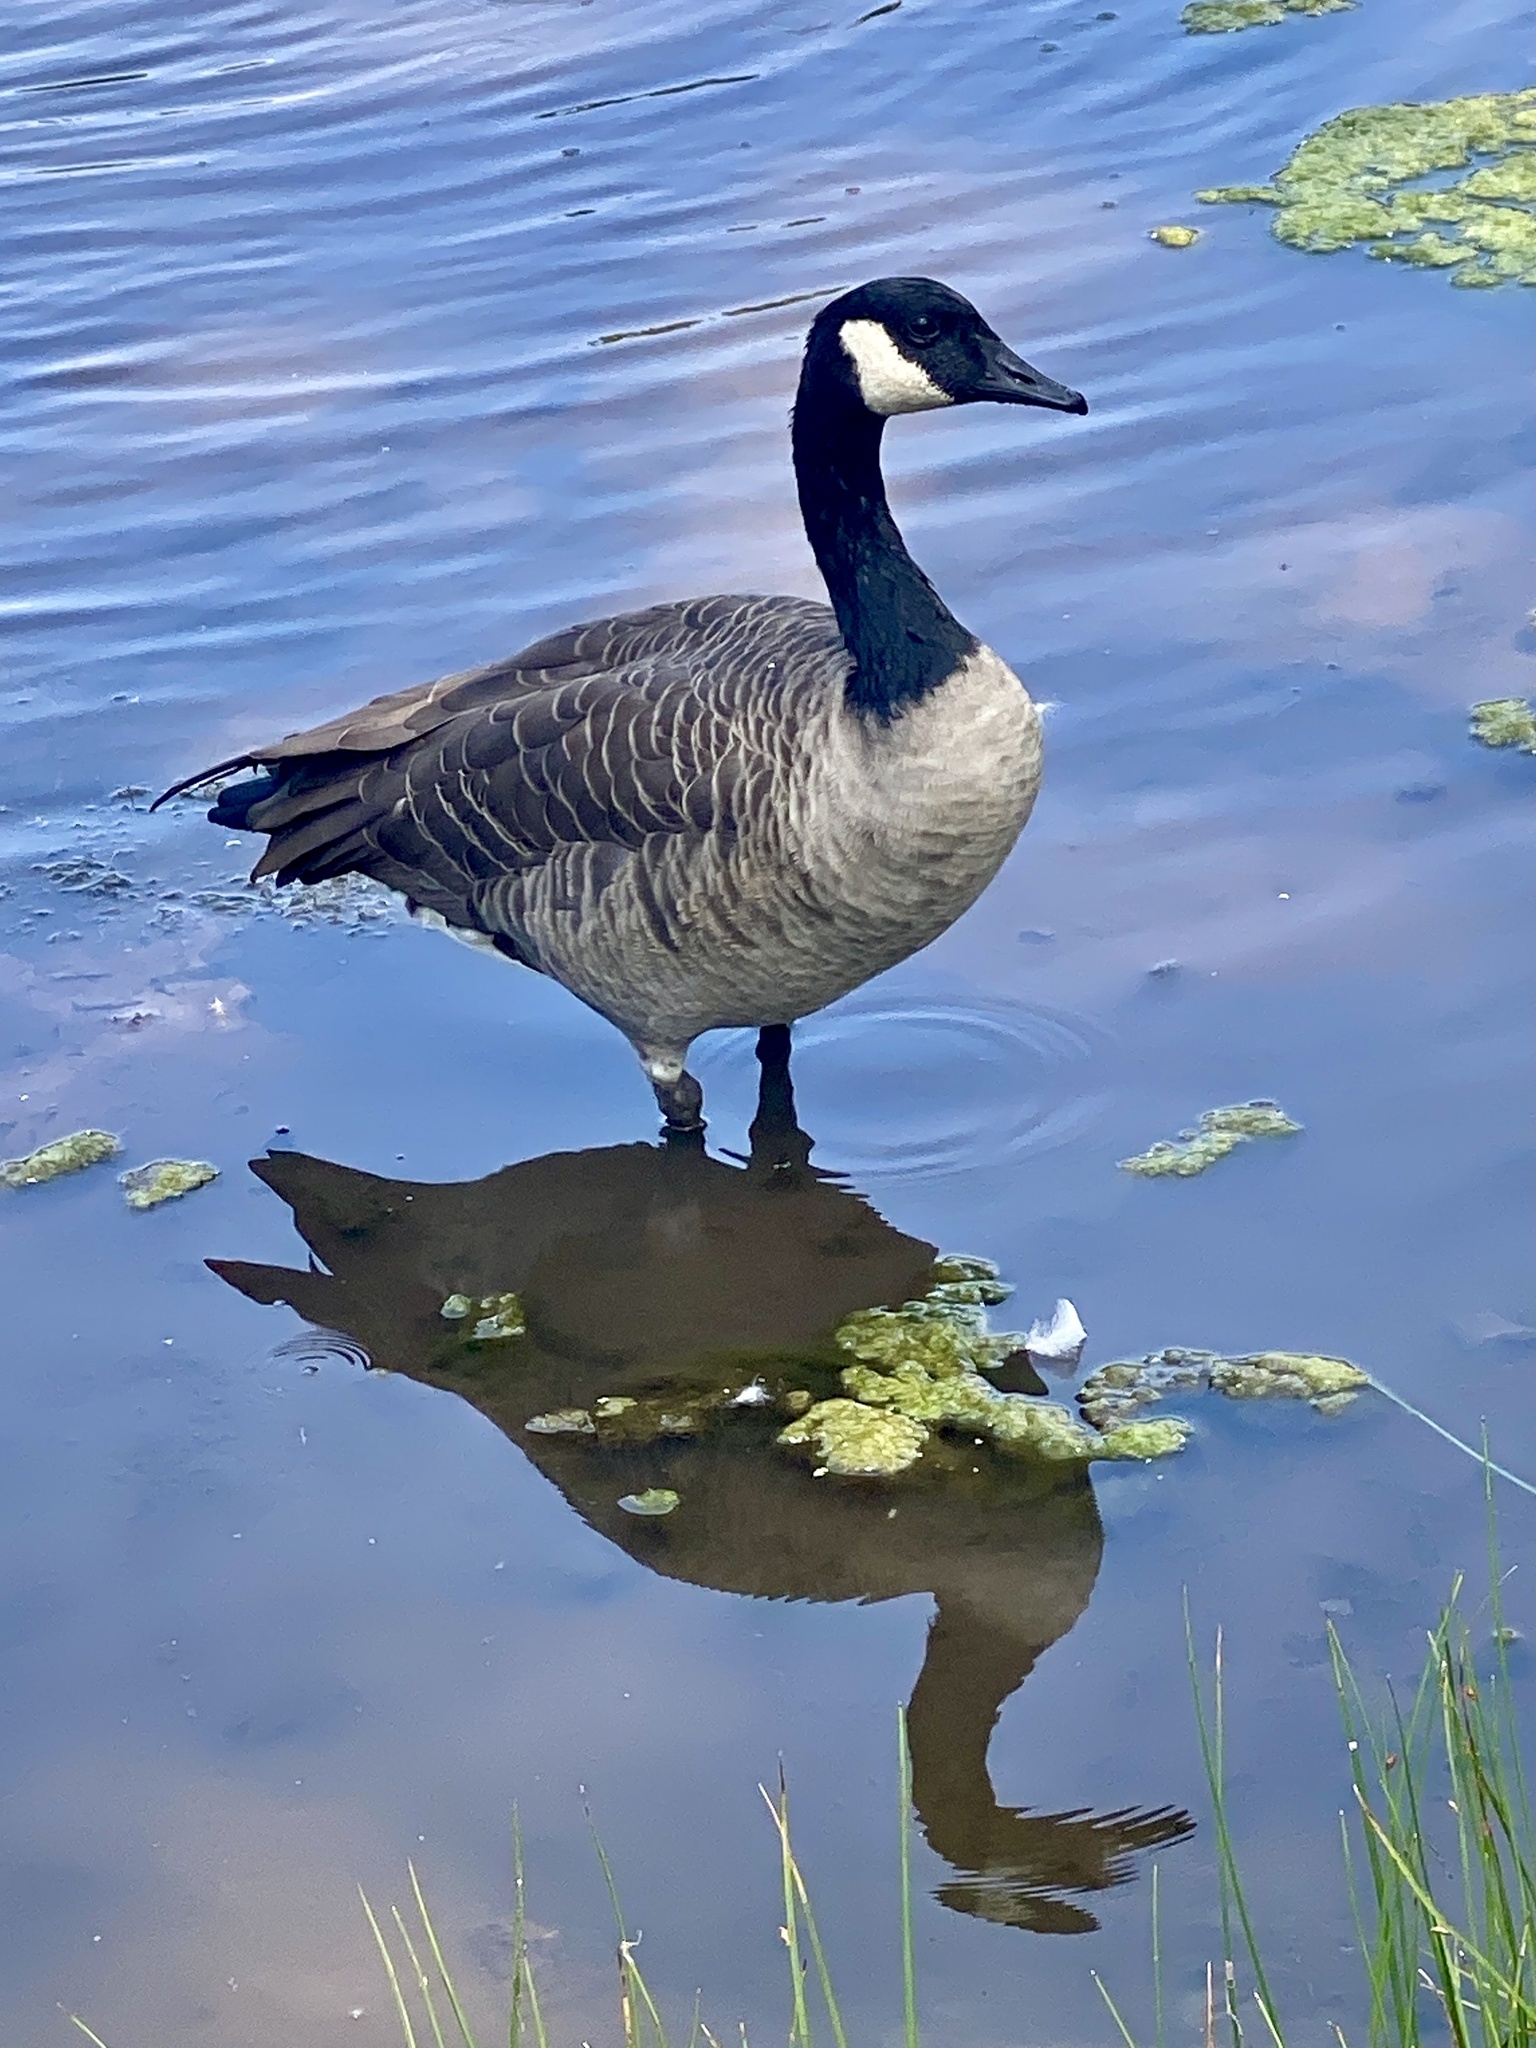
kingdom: Animalia
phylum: Chordata
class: Aves
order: Anseriformes
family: Anatidae
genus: Branta
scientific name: Branta canadensis
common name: Canada goose
